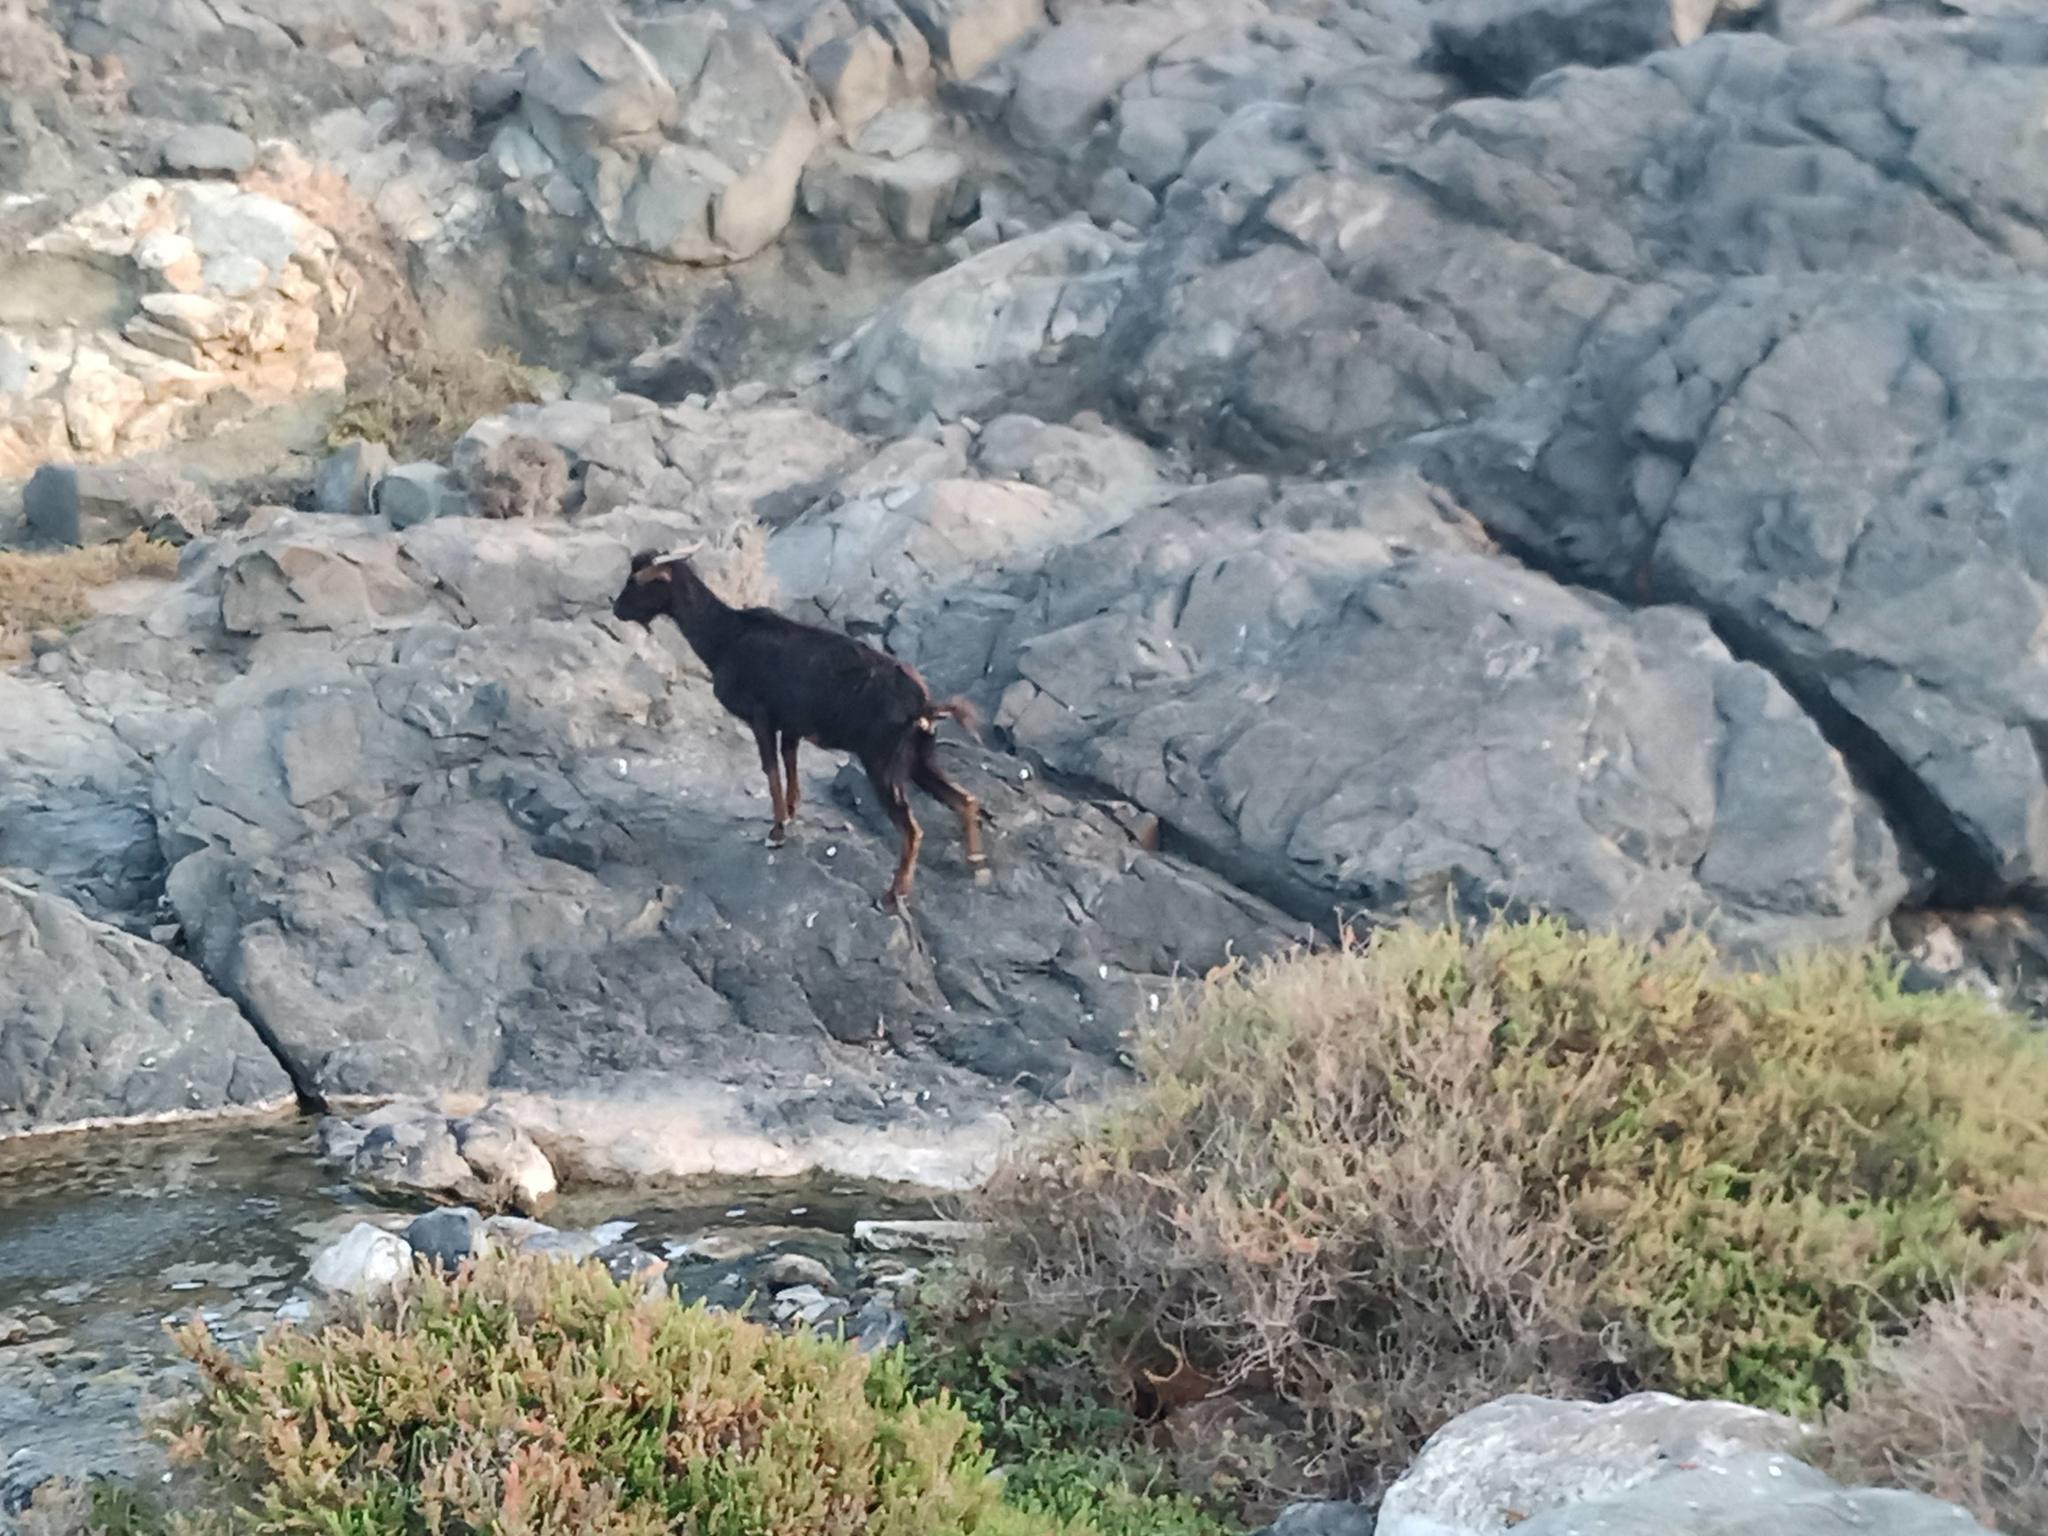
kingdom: Animalia
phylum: Chordata
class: Mammalia
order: Artiodactyla
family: Bovidae
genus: Capra
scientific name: Capra hircus
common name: Domestic goat
